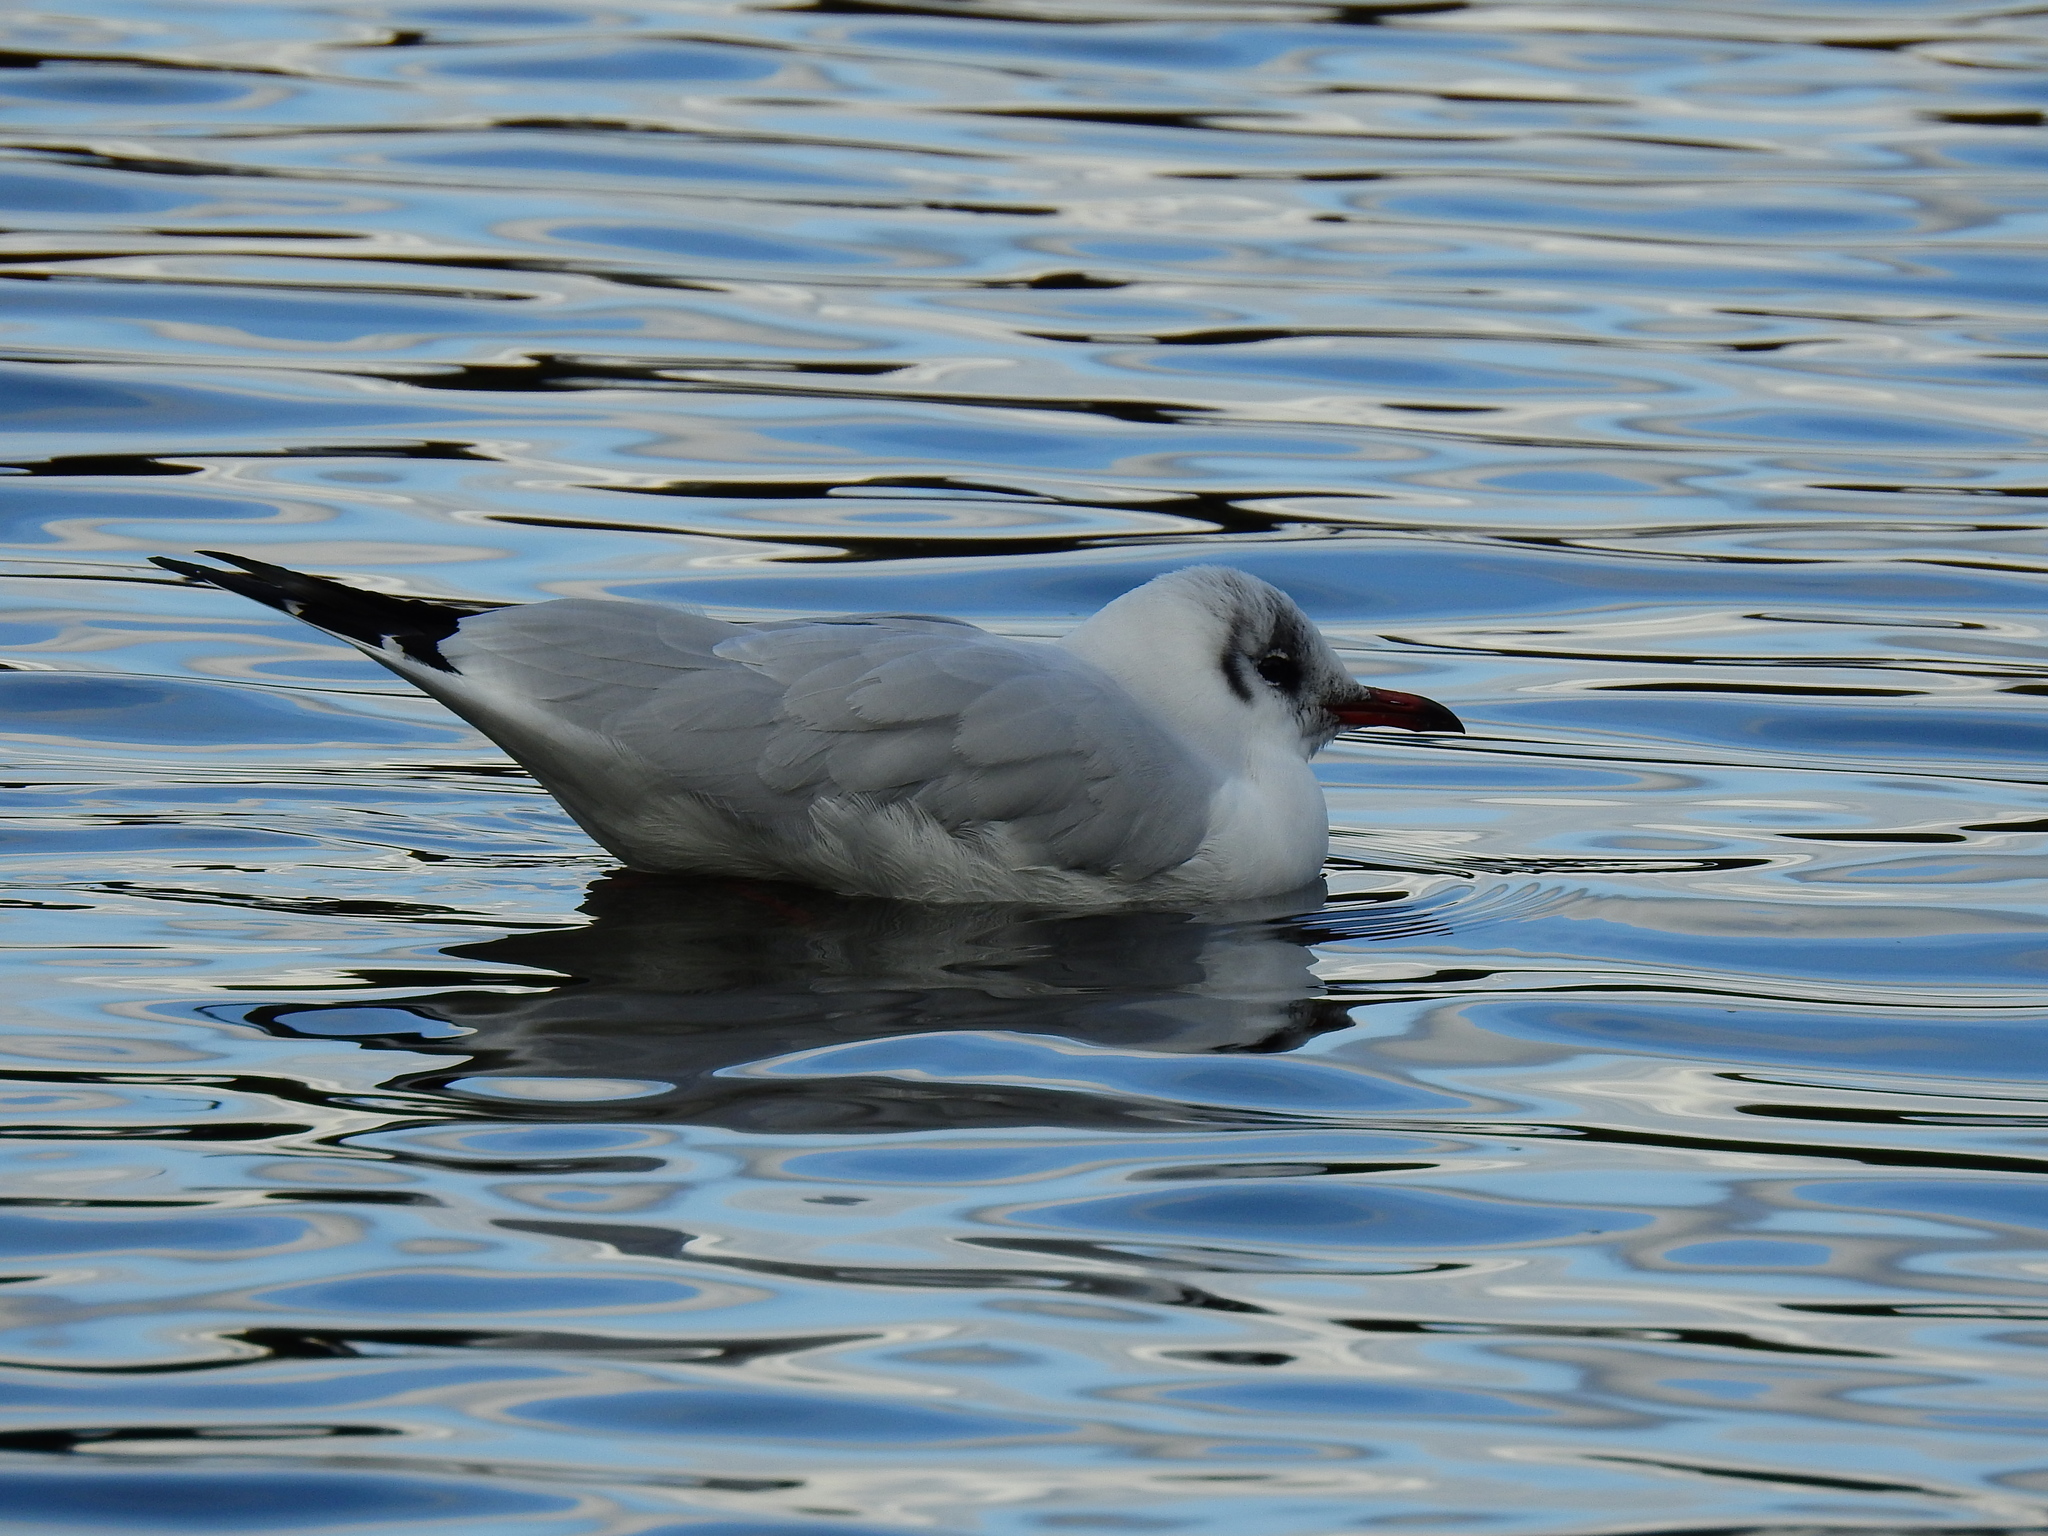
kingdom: Animalia
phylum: Chordata
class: Aves
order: Charadriiformes
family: Laridae
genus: Chroicocephalus
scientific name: Chroicocephalus ridibundus
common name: Black-headed gull
